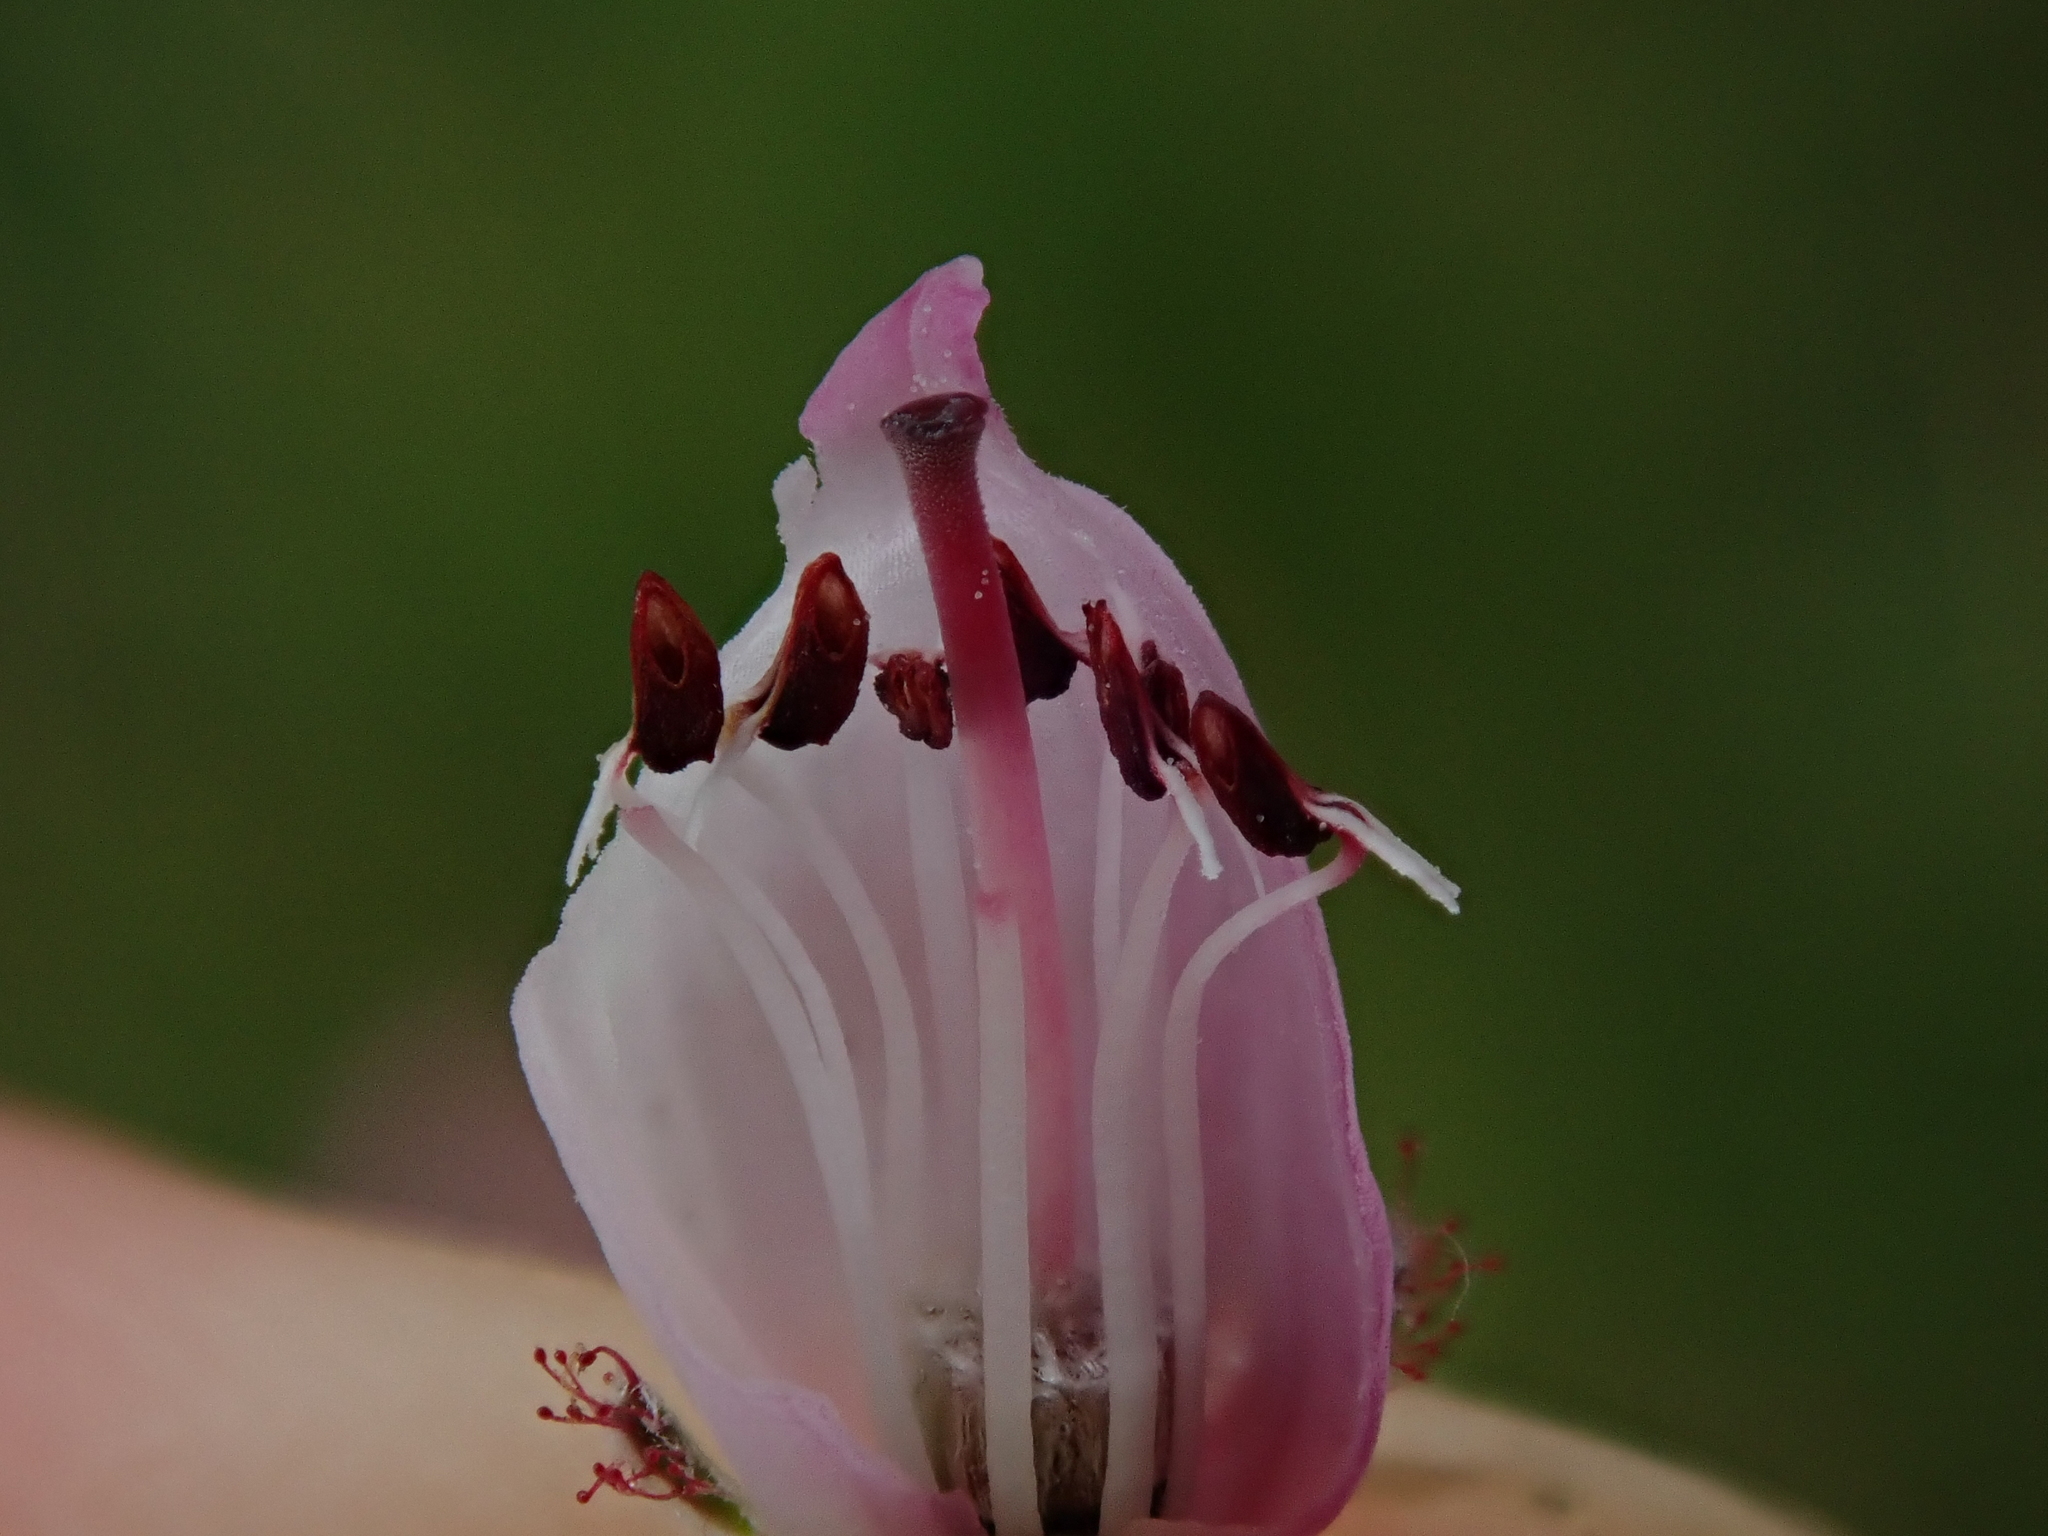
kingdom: Plantae
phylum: Tracheophyta
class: Magnoliopsida
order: Ericales
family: Ericaceae
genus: Erica
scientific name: Erica tetralix
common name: Cross-leaved heath
